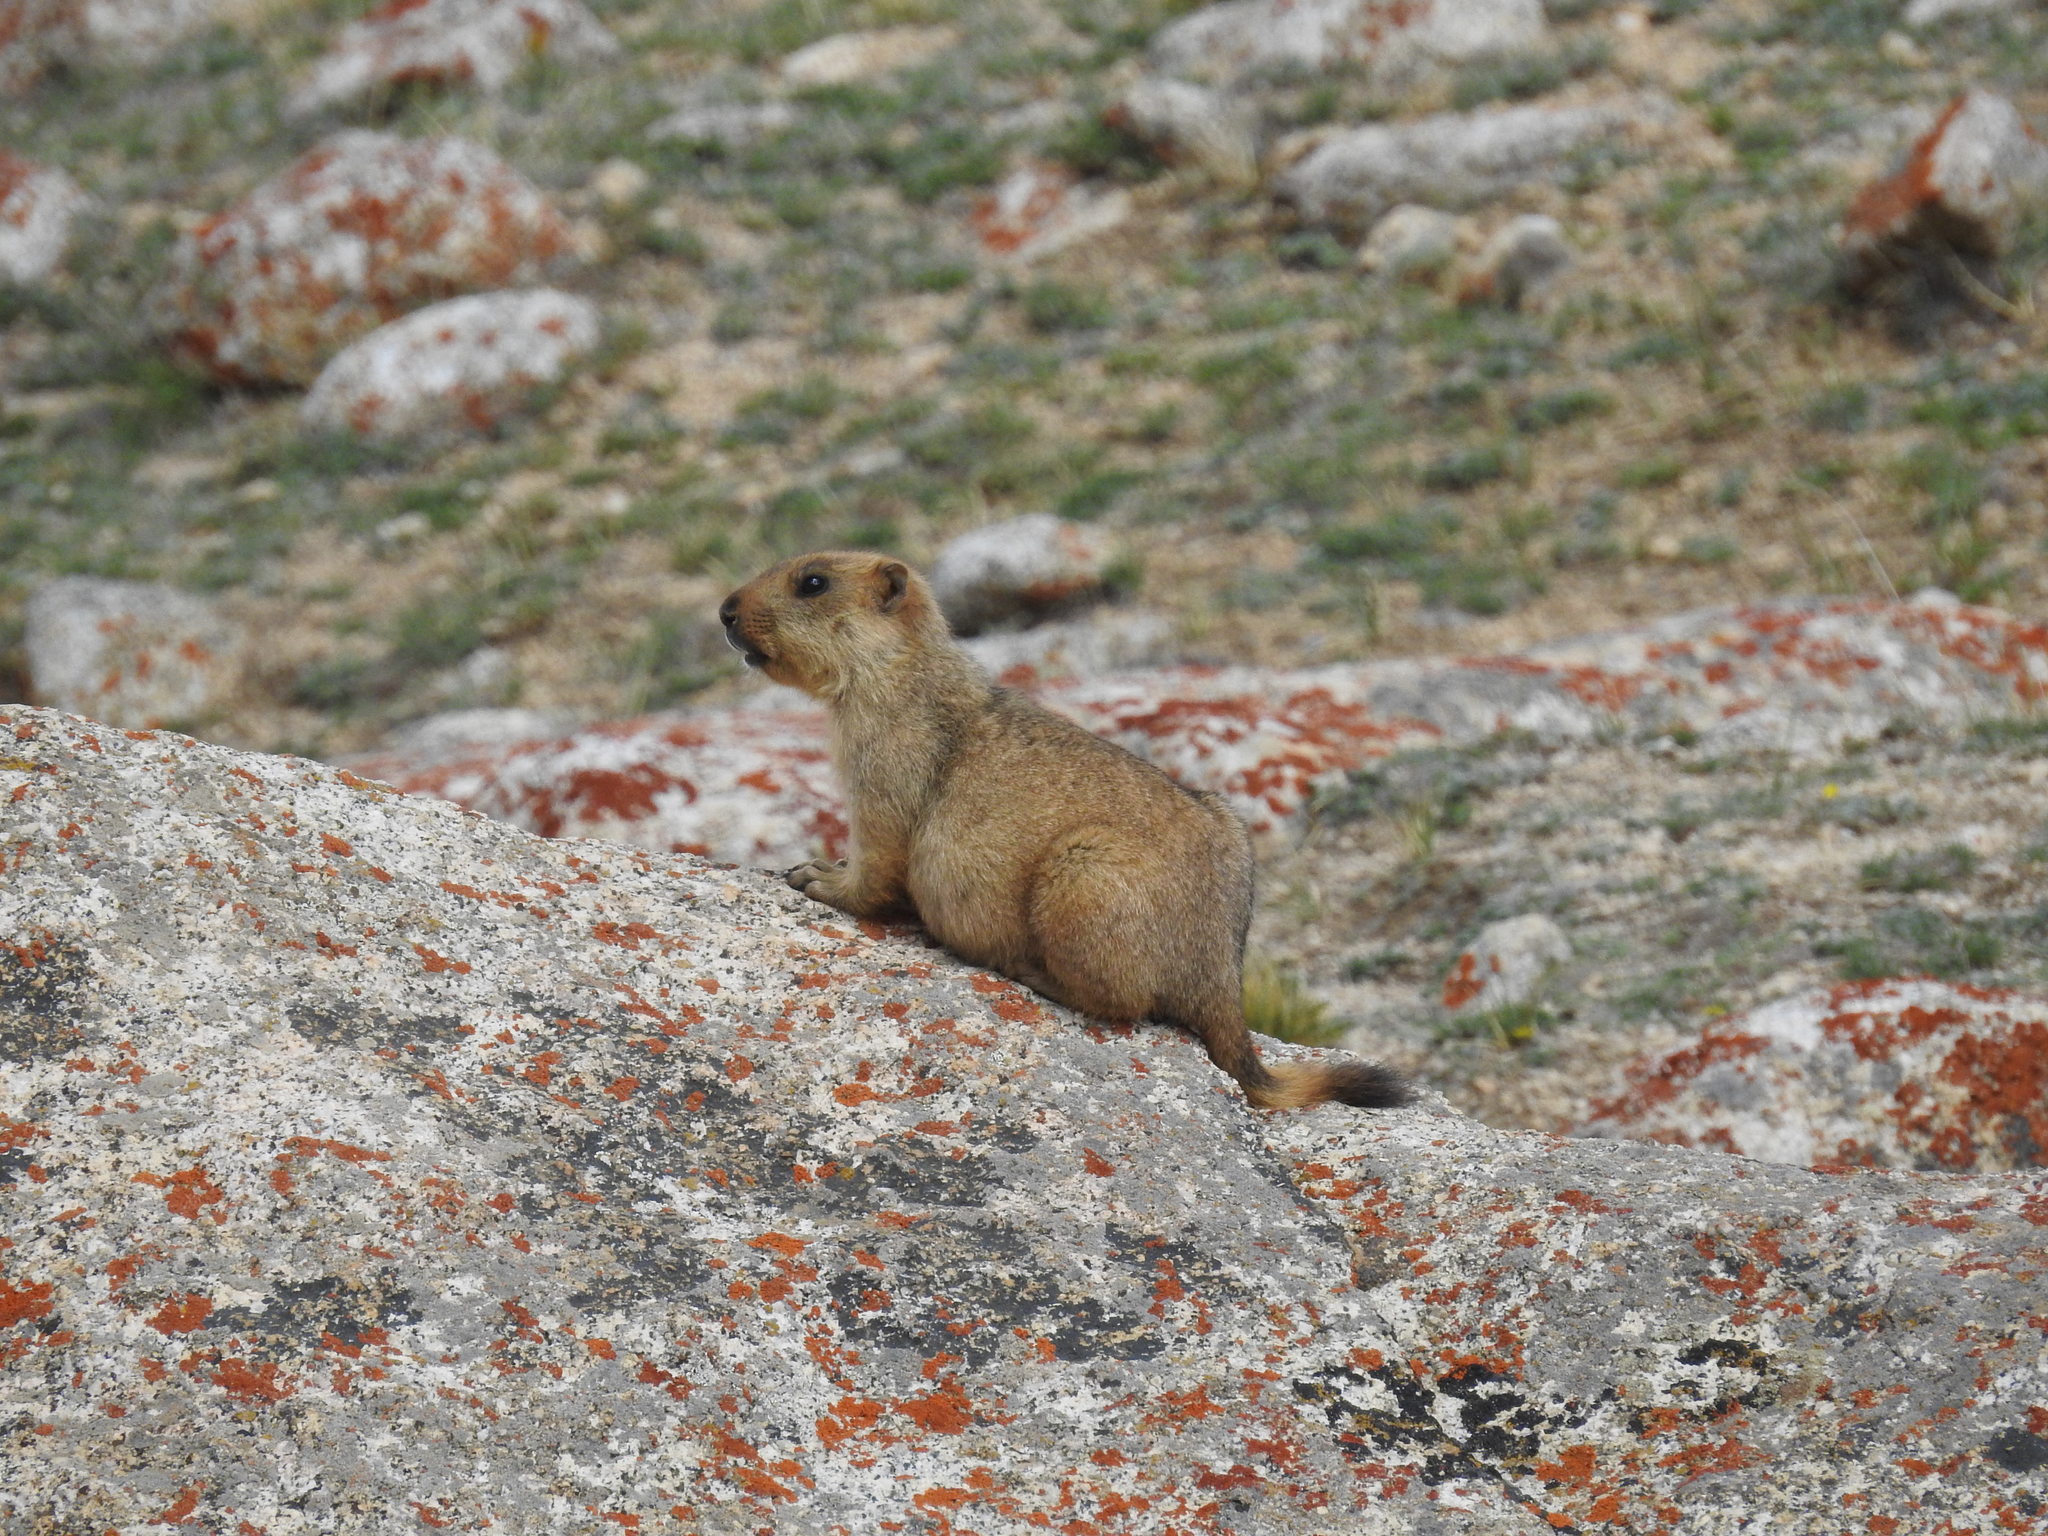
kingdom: Animalia
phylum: Chordata
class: Mammalia
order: Rodentia
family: Sciuridae
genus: Marmota
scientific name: Marmota himalayana
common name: Himalayan marmot
